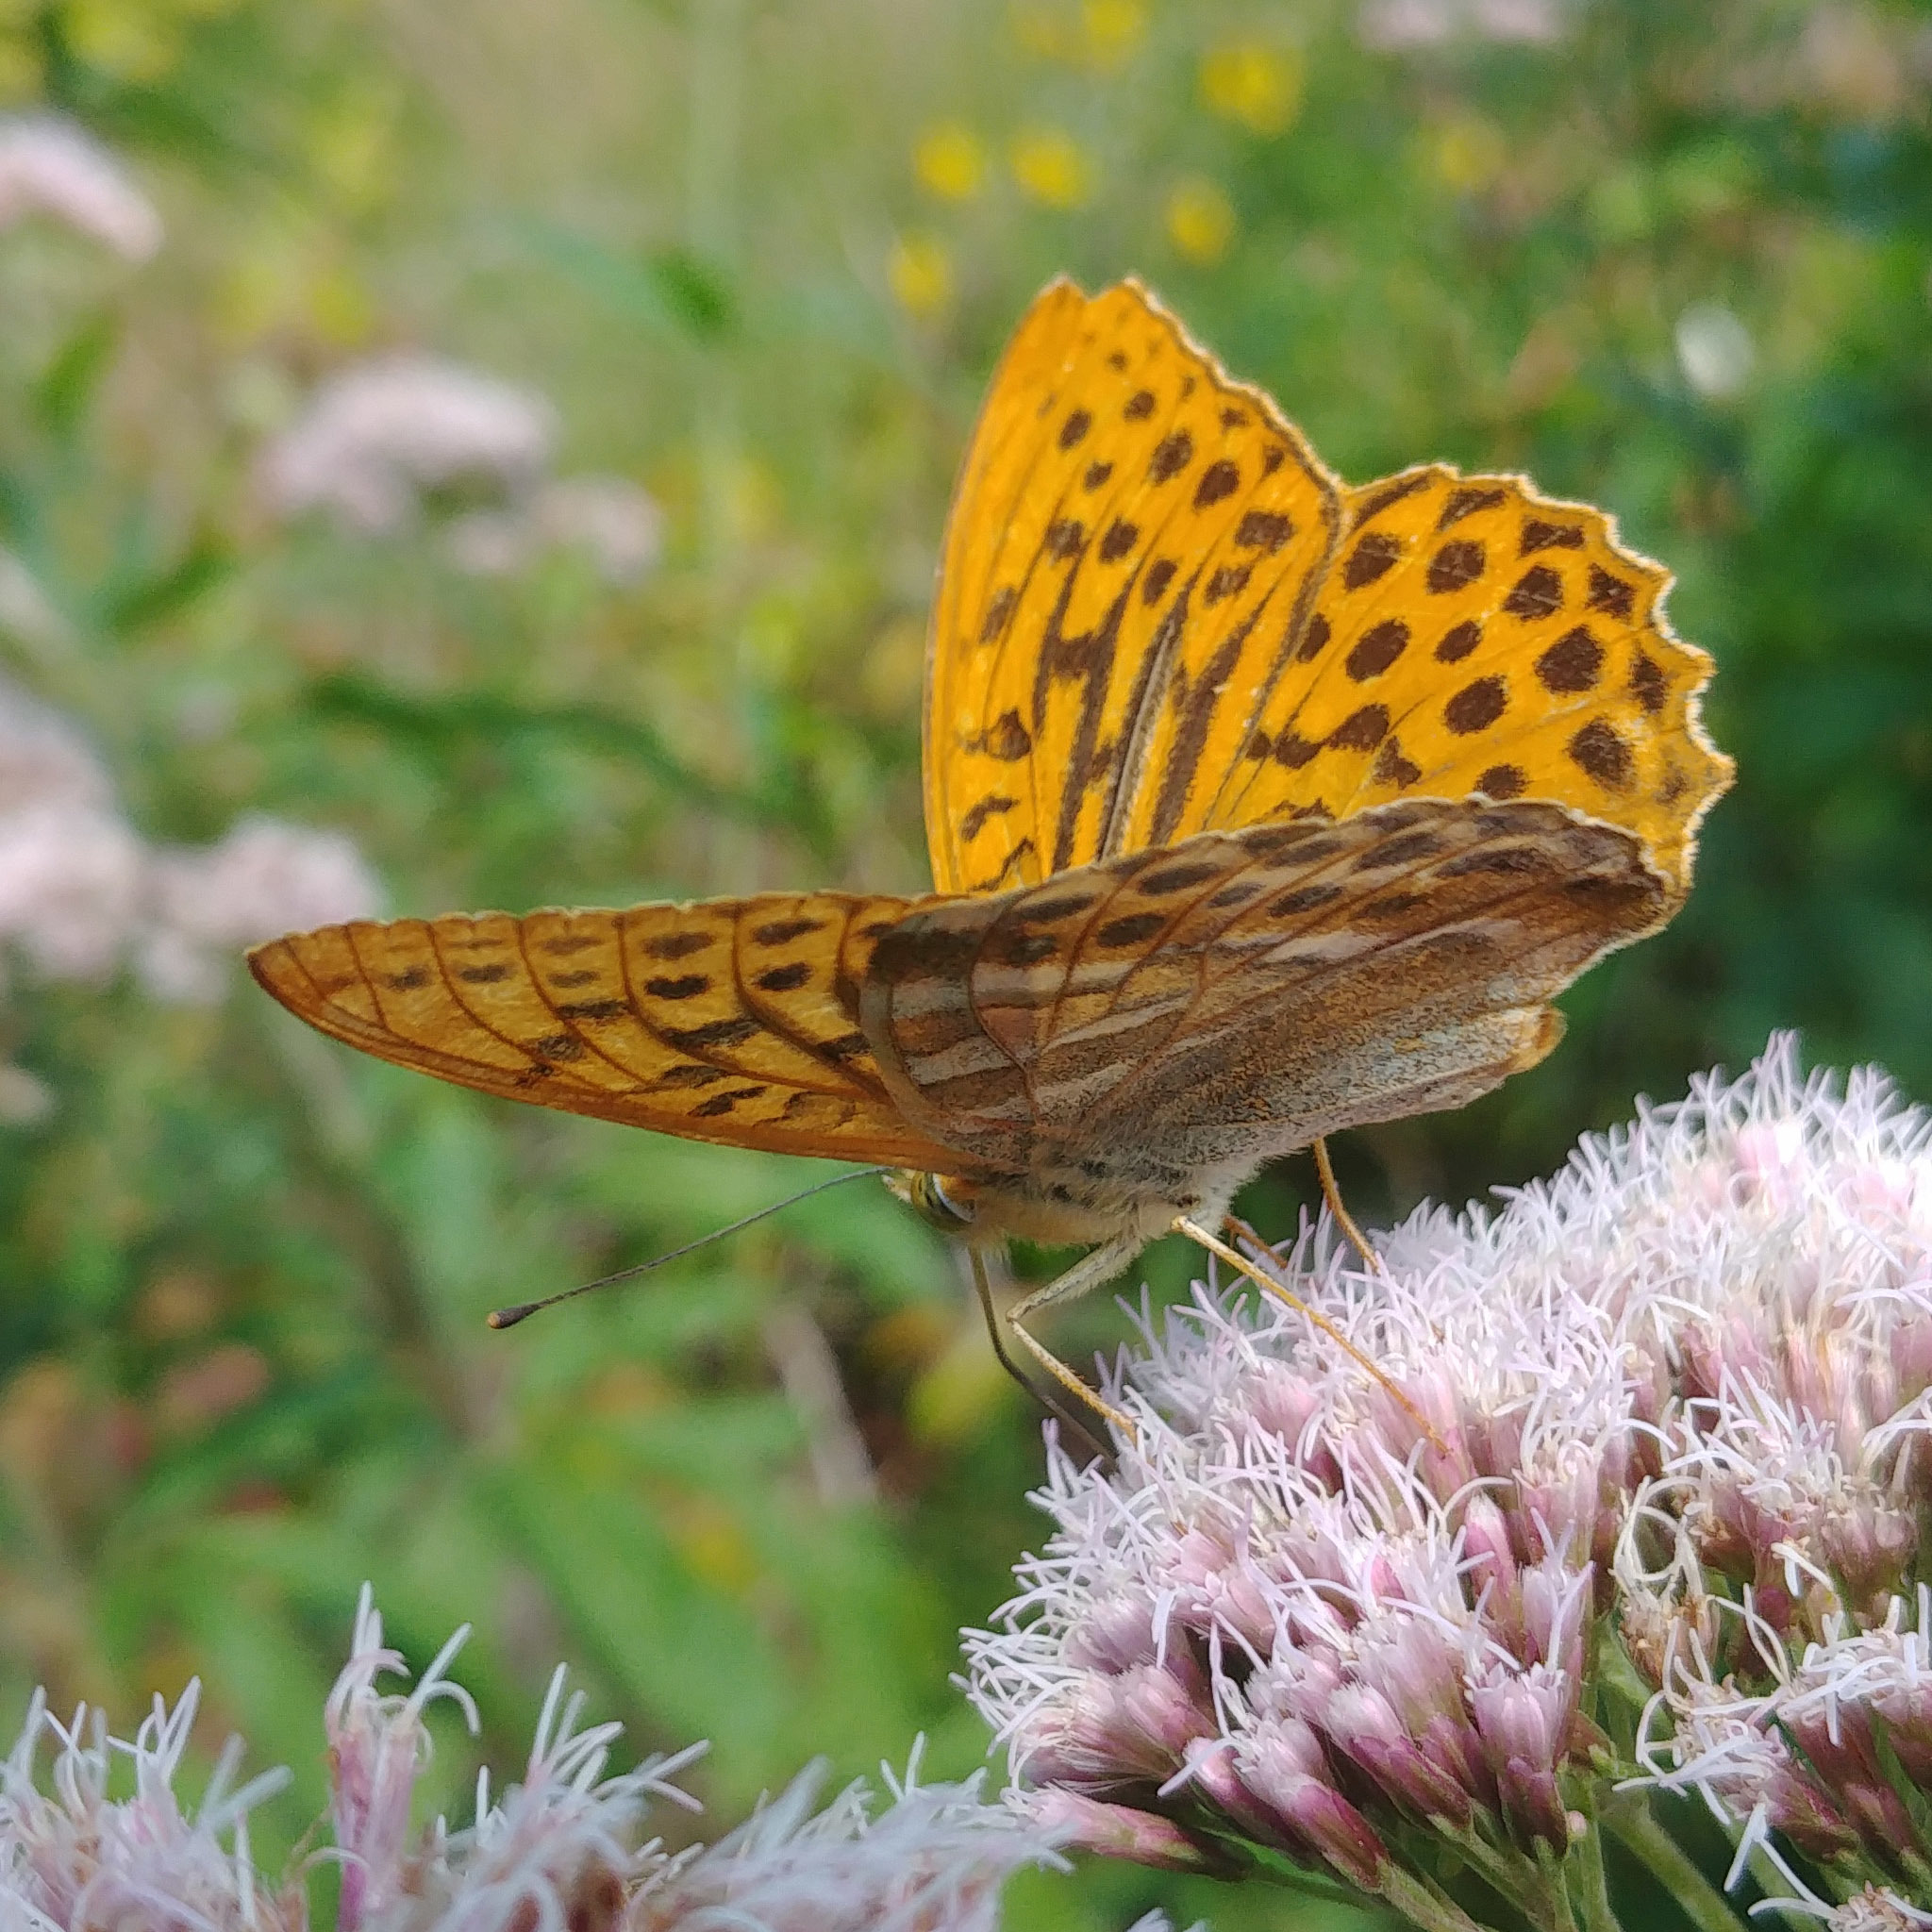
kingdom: Animalia
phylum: Arthropoda
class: Insecta
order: Lepidoptera
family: Nymphalidae
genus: Argynnis
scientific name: Argynnis paphia
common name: Silver-washed fritillary
